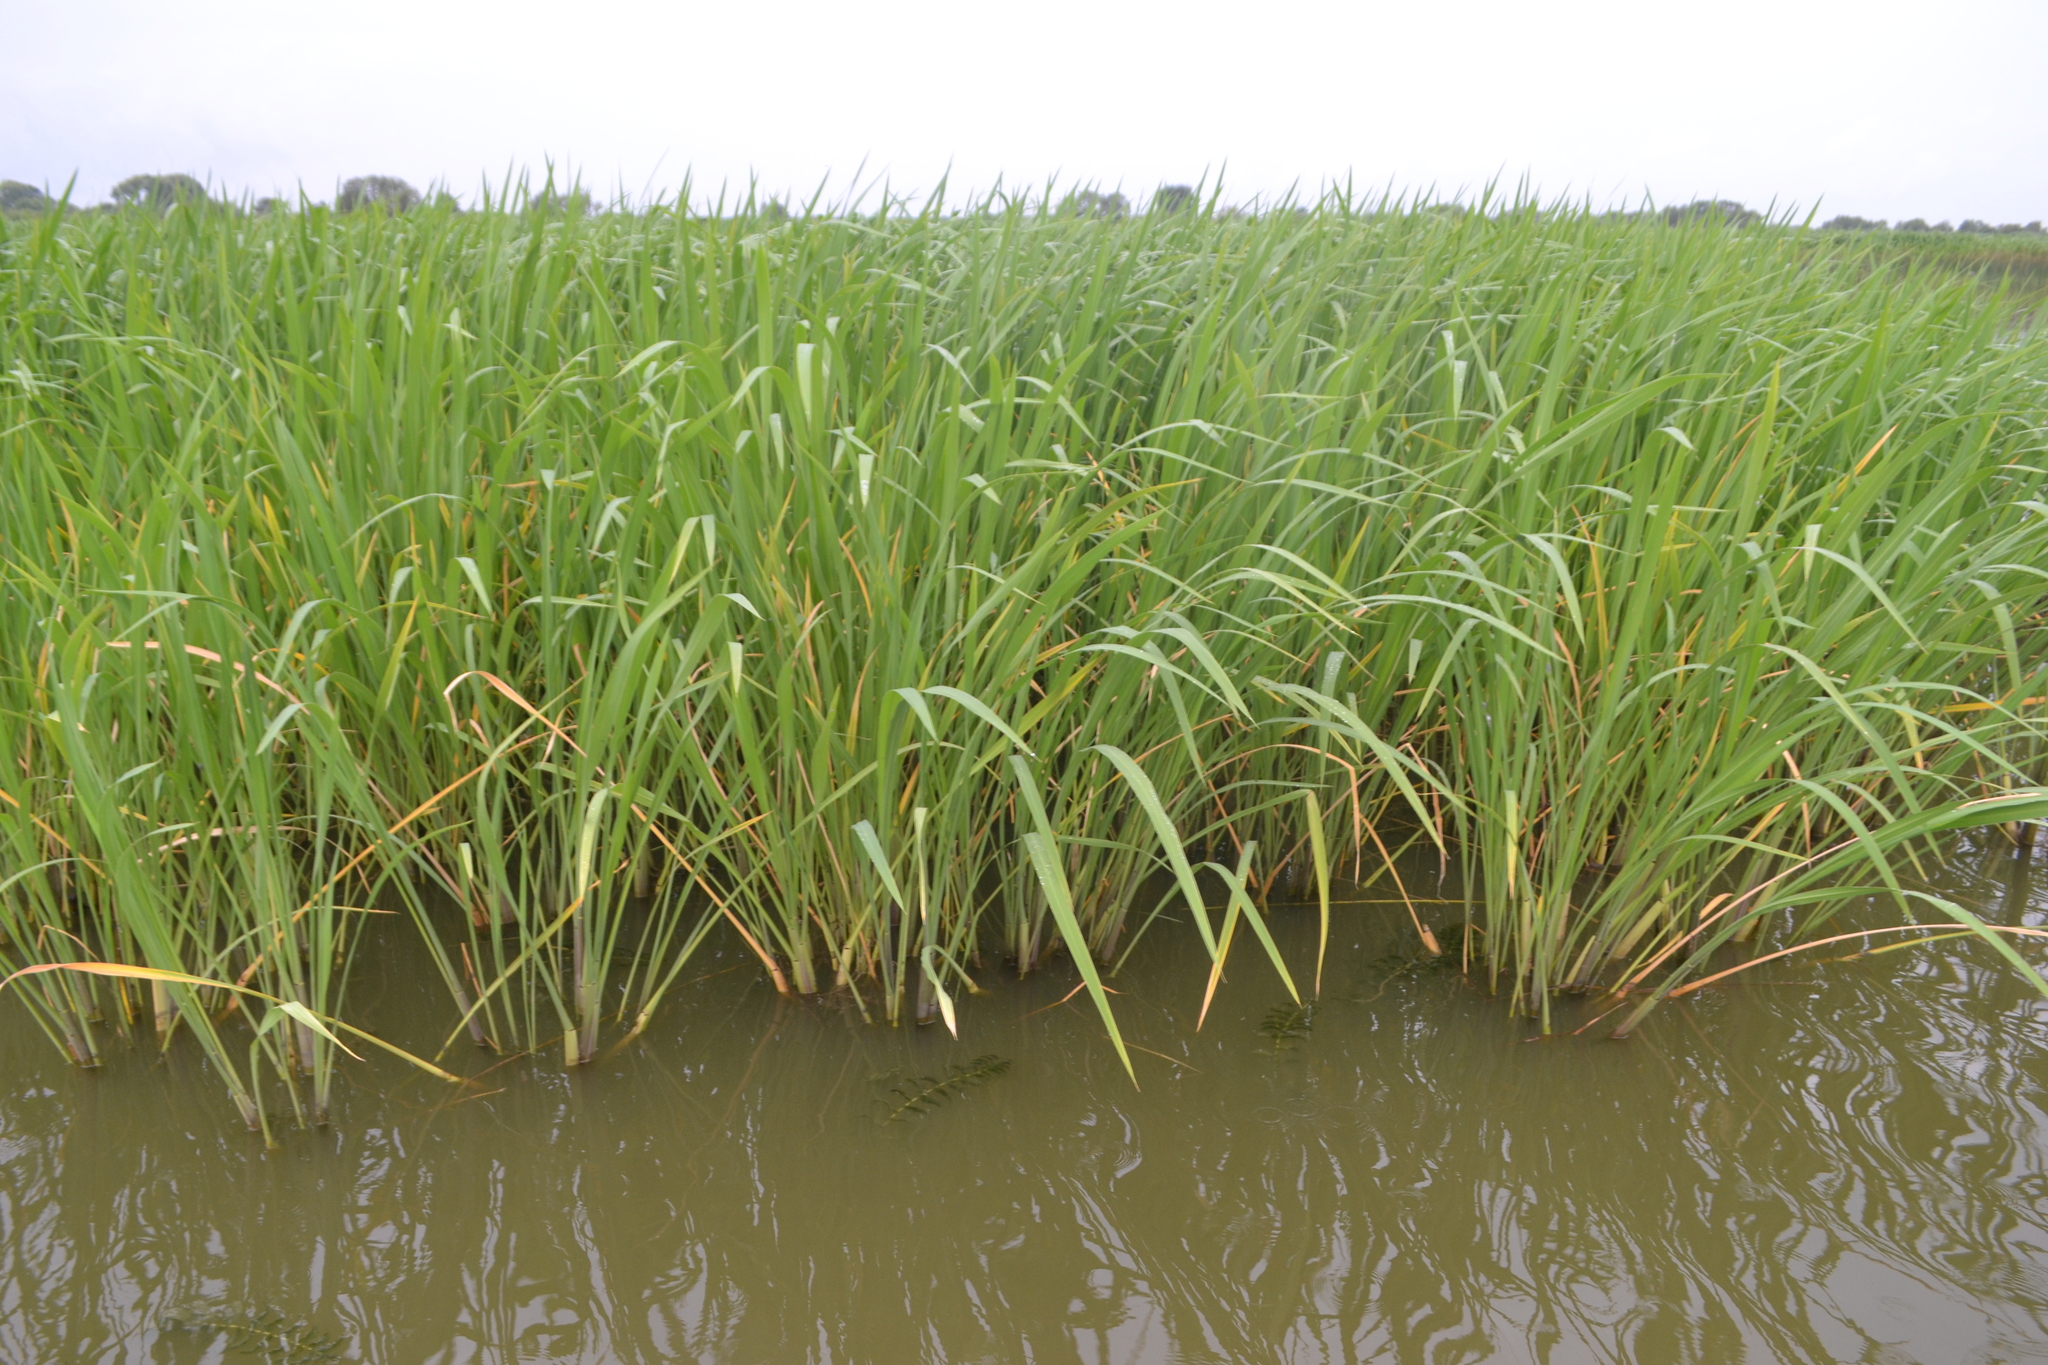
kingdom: Plantae
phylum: Tracheophyta
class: Liliopsida
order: Poales
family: Poaceae
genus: Zizania
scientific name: Zizania latifolia
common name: Manchurian wildrice
